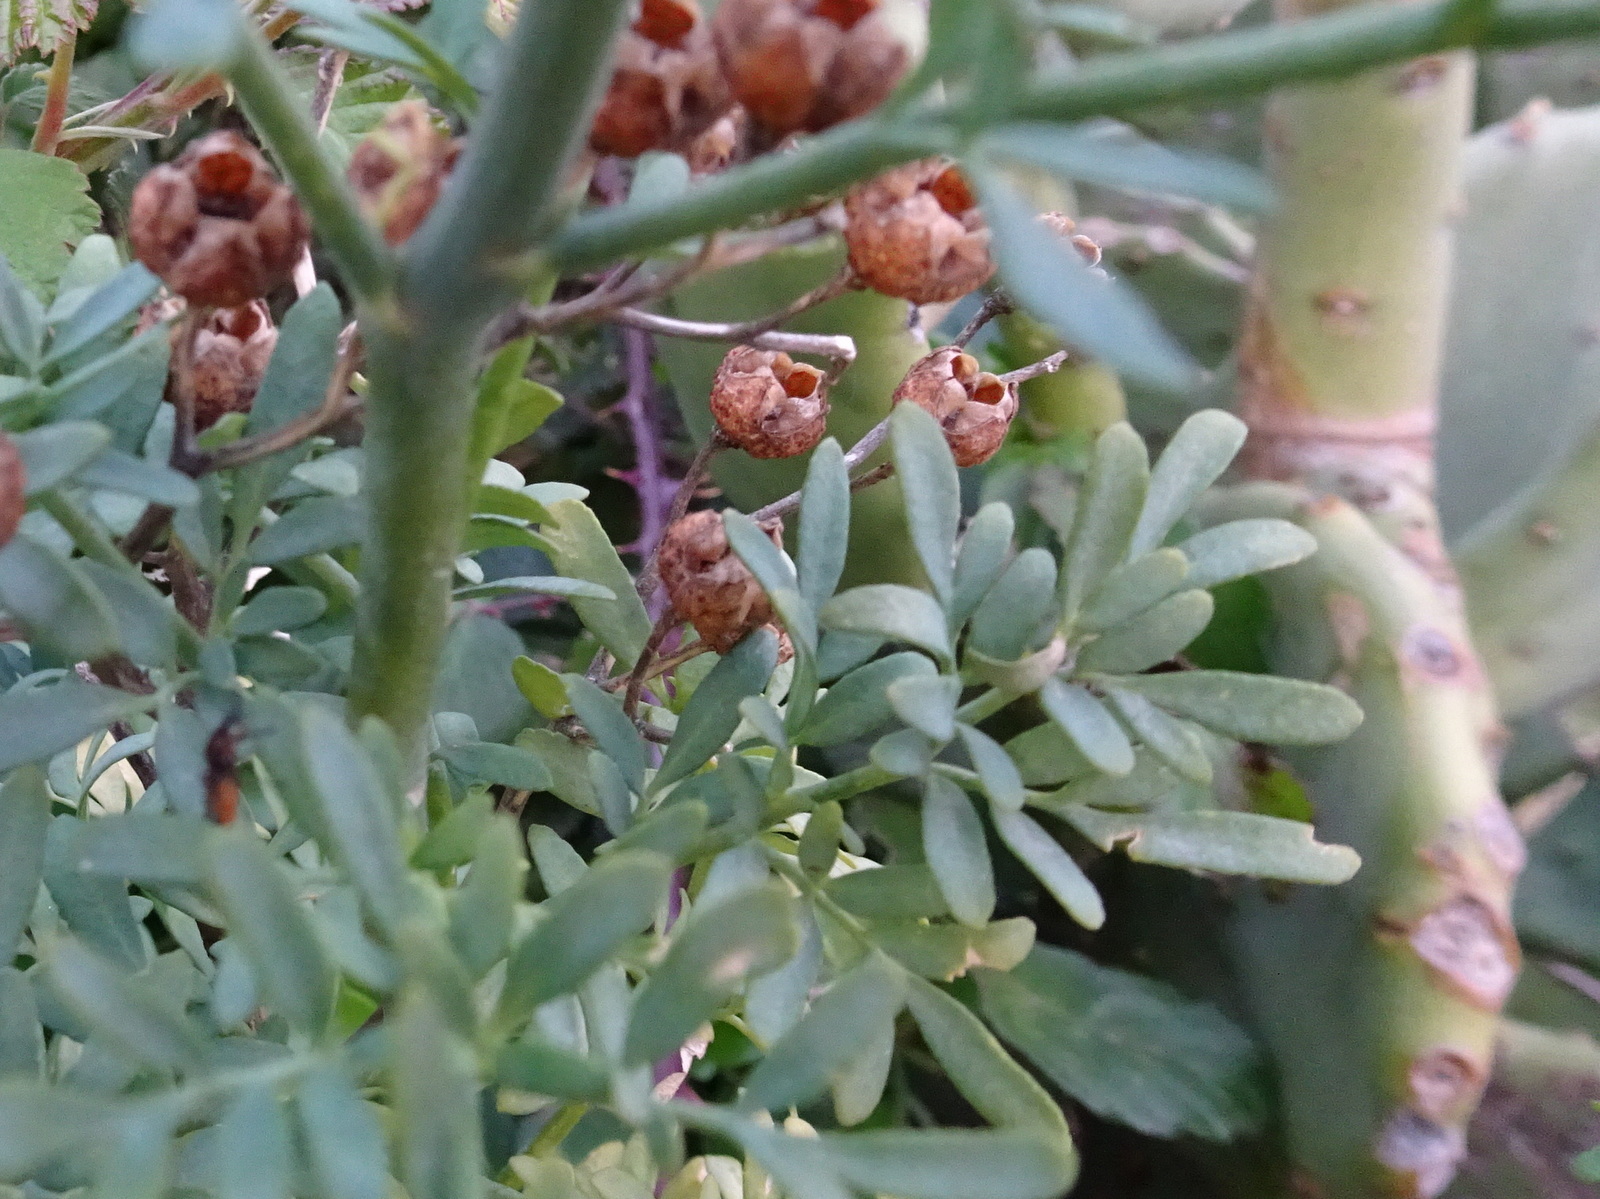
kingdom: Plantae
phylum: Tracheophyta
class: Magnoliopsida
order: Sapindales
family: Rutaceae
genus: Ruta
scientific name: Ruta chalepensis
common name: Fringed rue
